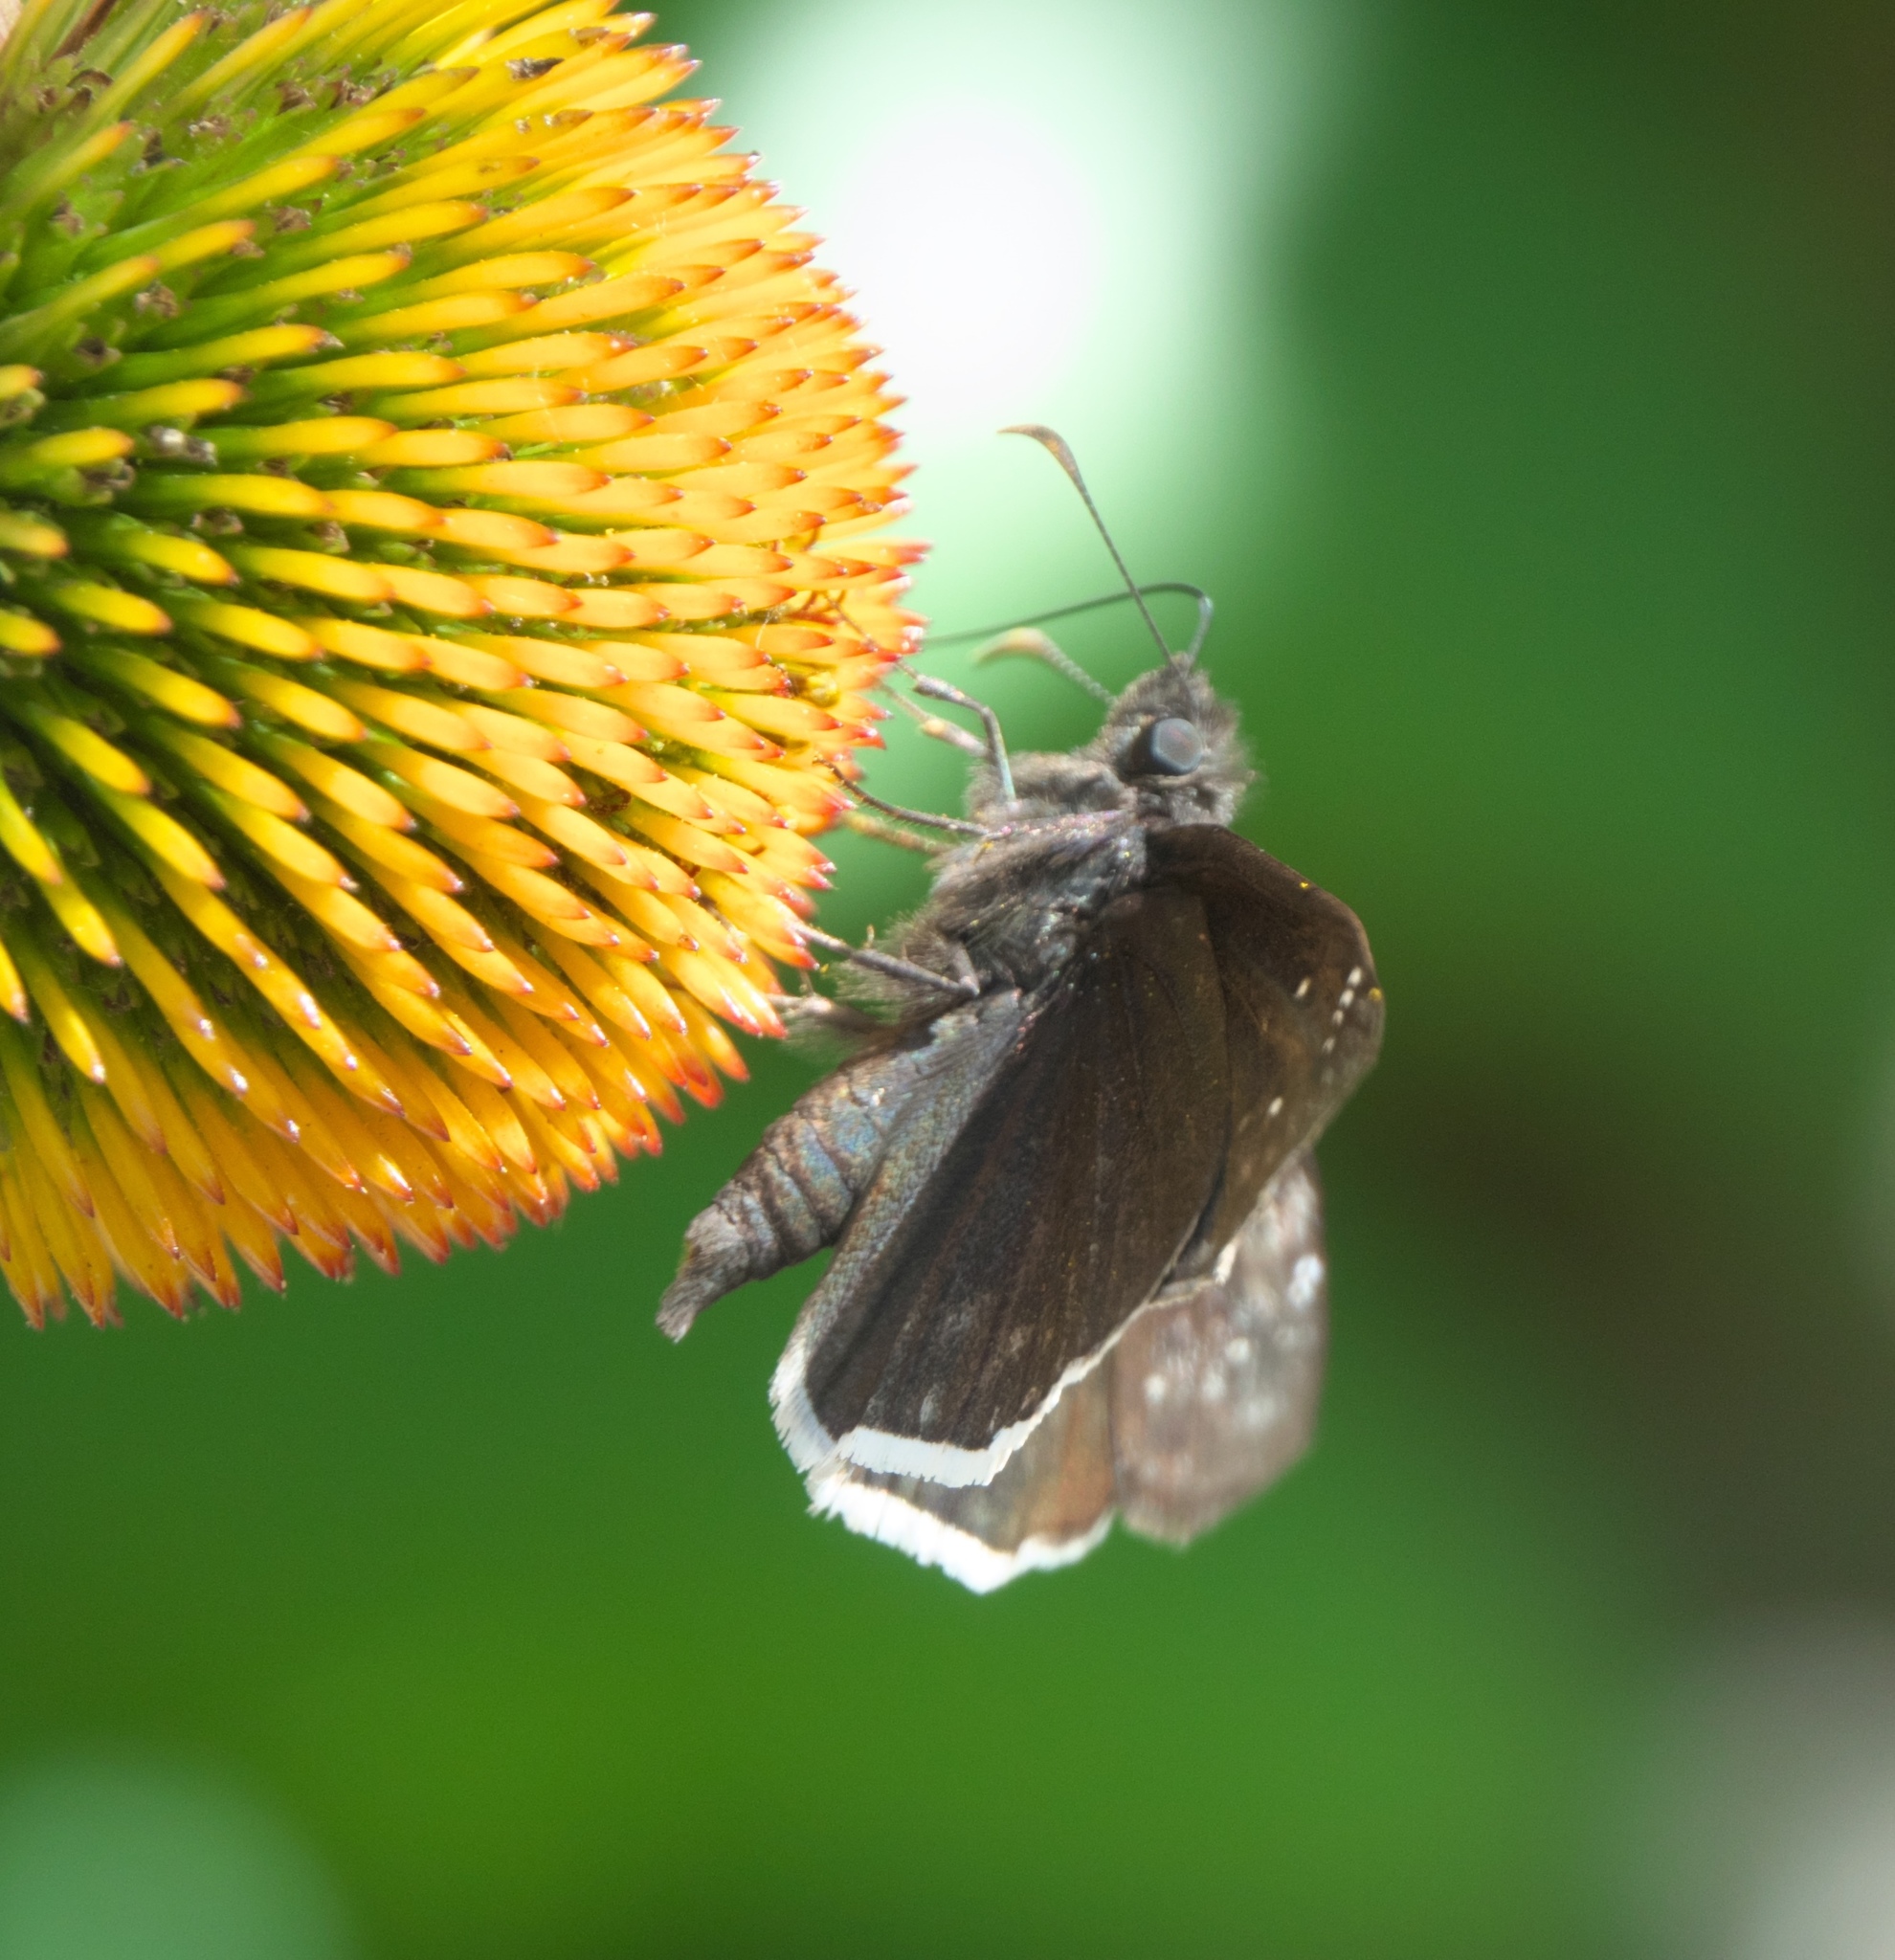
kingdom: Animalia
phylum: Arthropoda
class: Insecta
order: Lepidoptera
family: Hesperiidae
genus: Erynnis
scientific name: Erynnis funeralis
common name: Funereal duskywing
